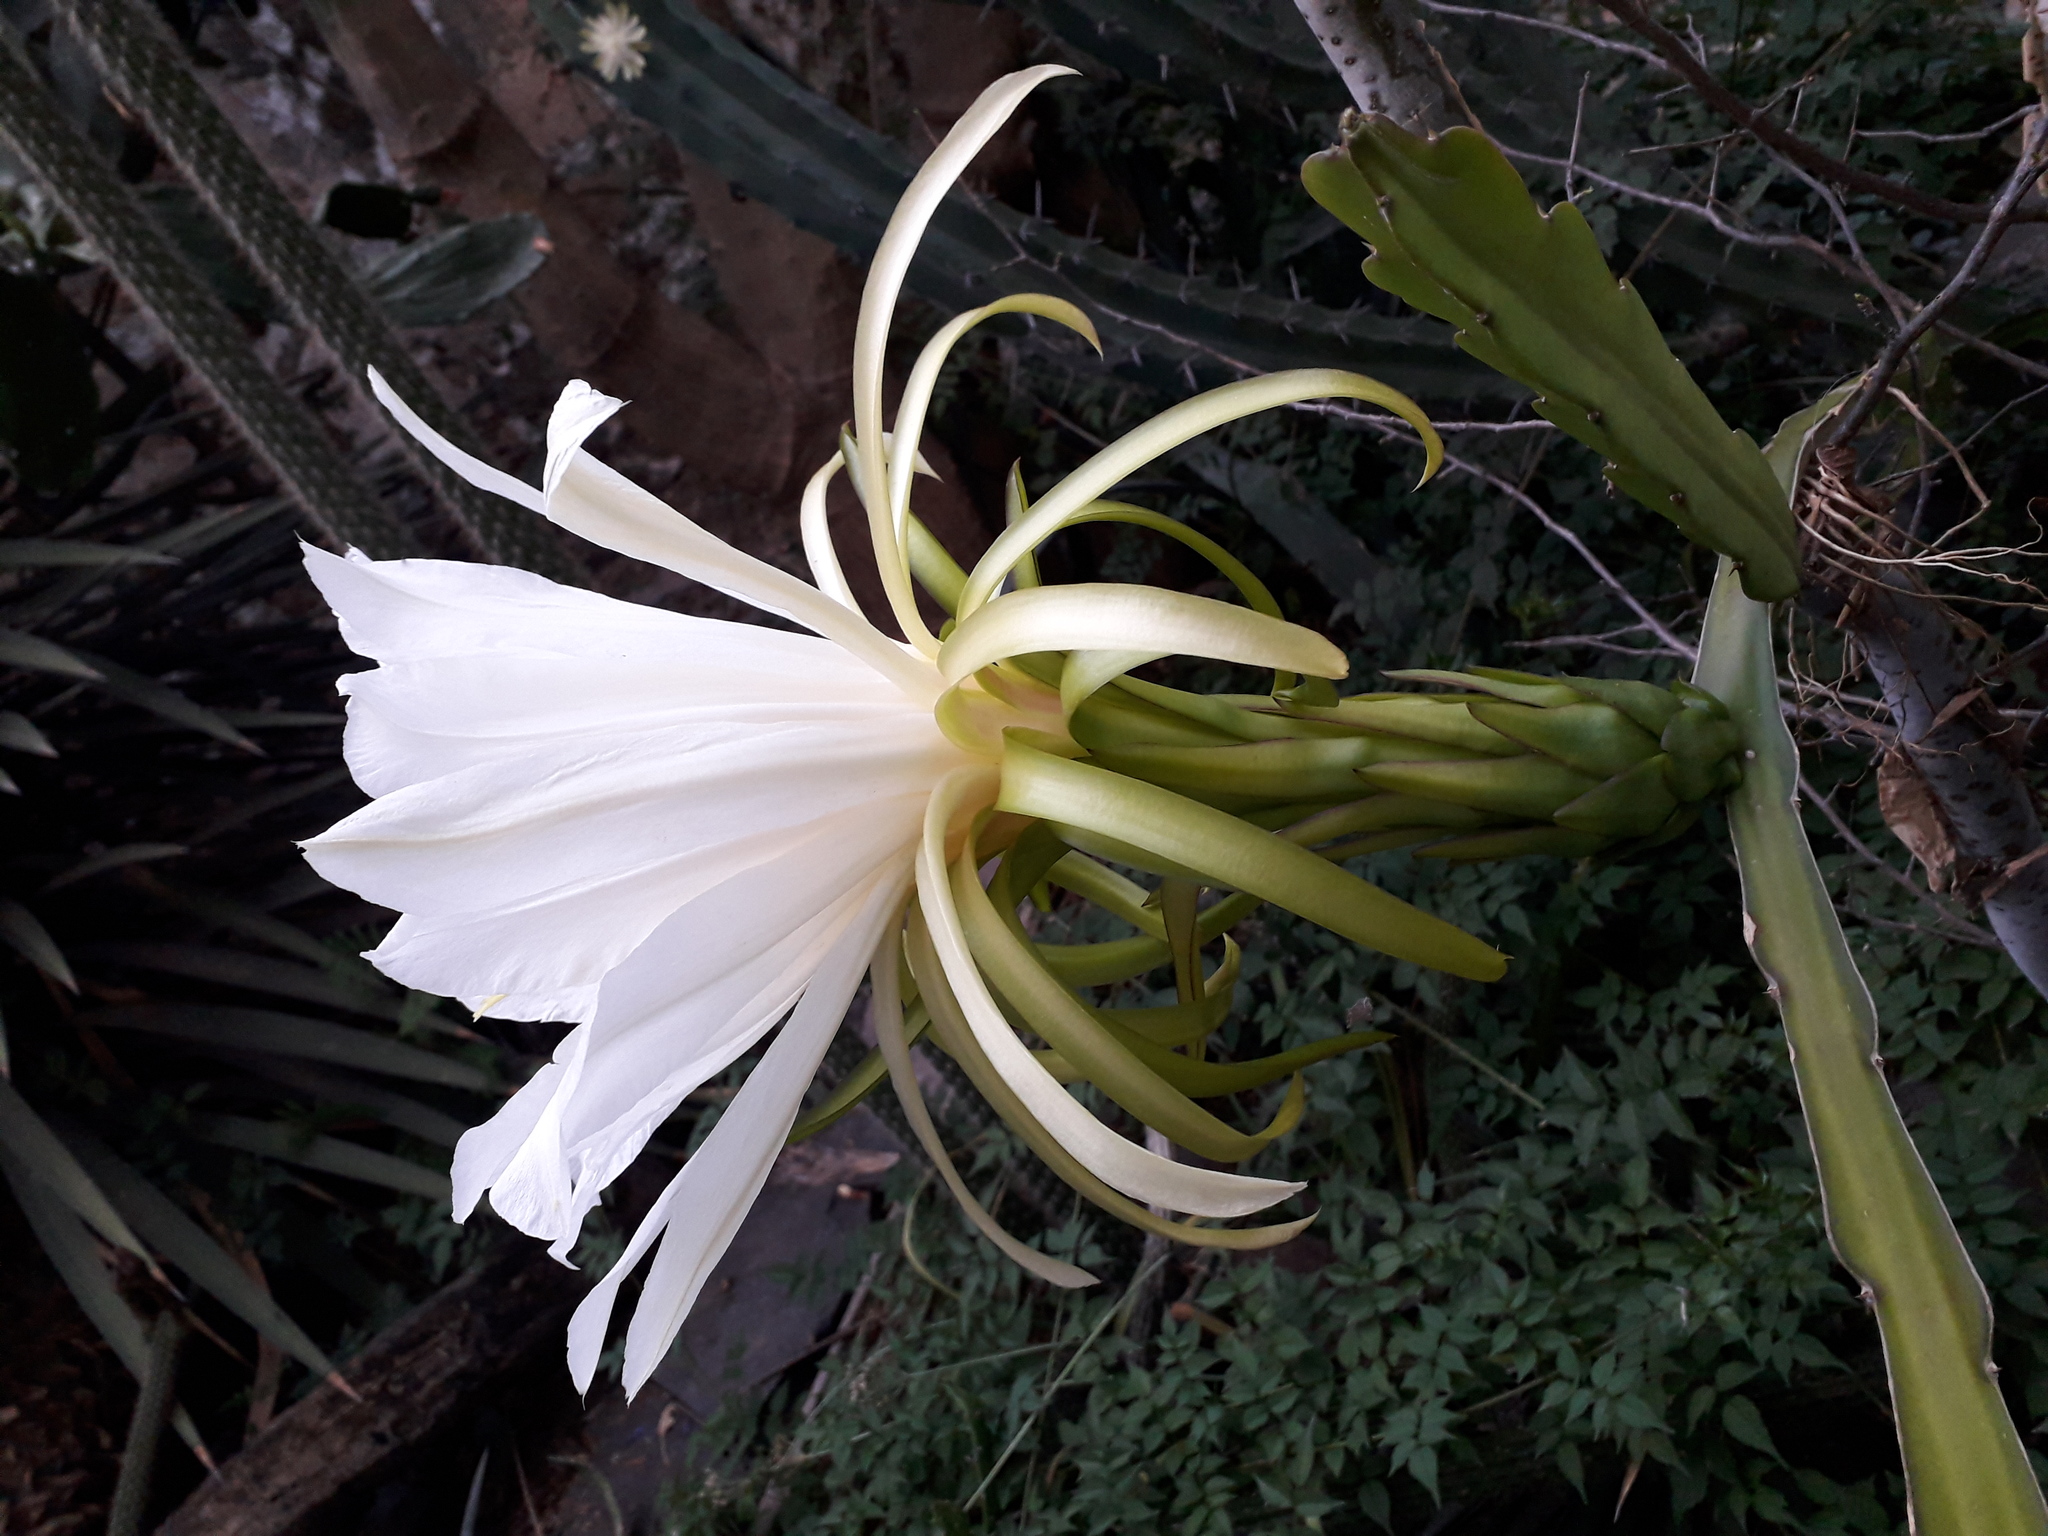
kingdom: Plantae
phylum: Tracheophyta
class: Magnoliopsida
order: Caryophyllales
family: Cactaceae
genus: Selenicereus
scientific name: Selenicereus undatus
